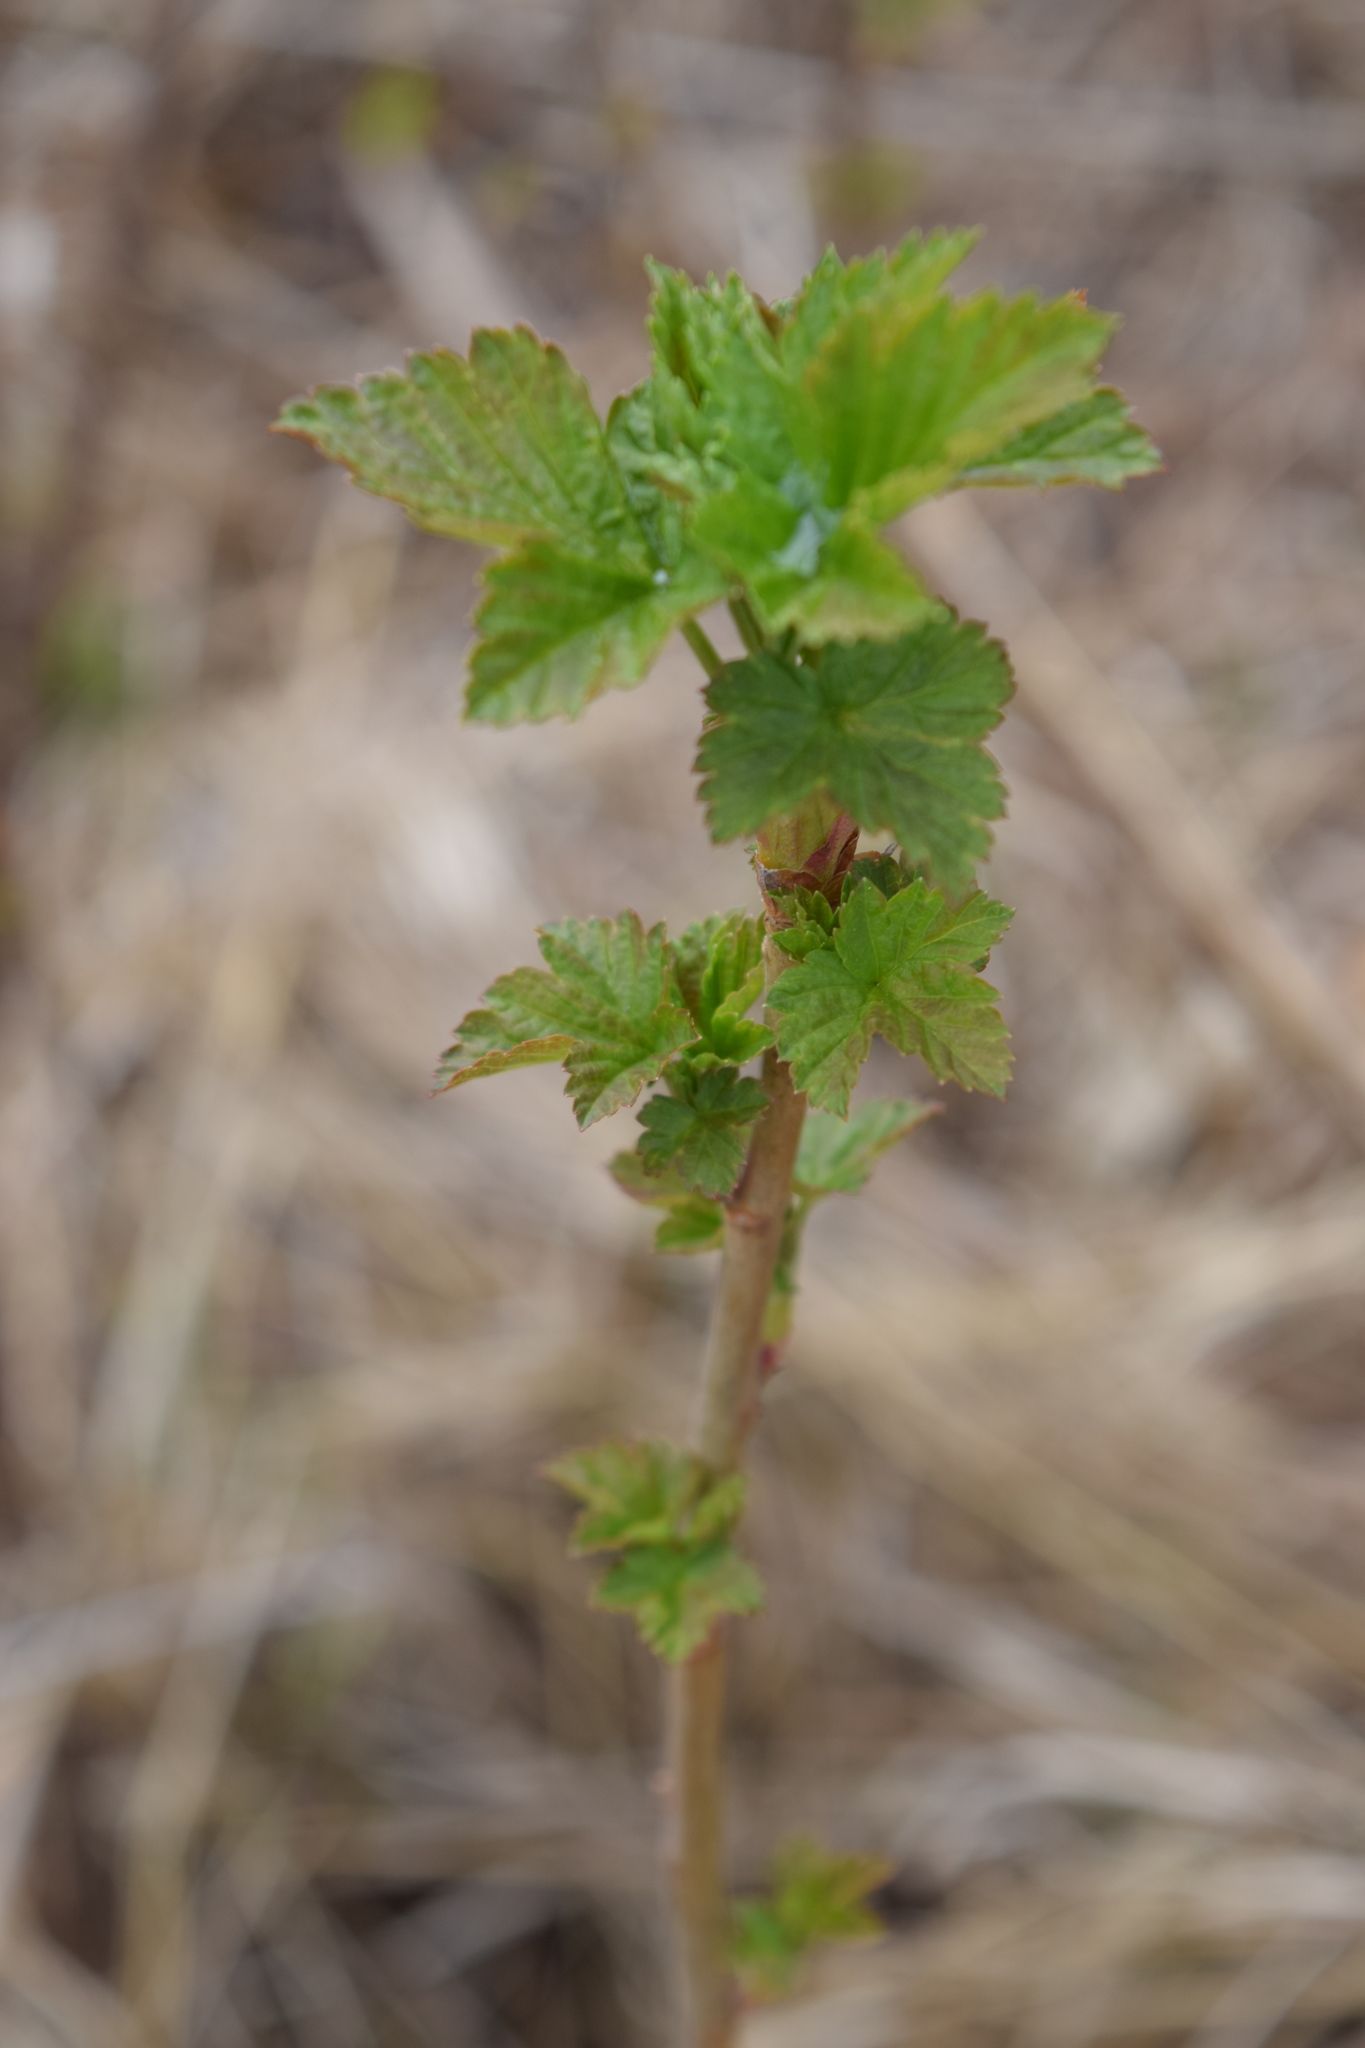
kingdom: Plantae
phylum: Tracheophyta
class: Magnoliopsida
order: Saxifragales
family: Grossulariaceae
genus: Ribes
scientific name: Ribes nigrum
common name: Black currant
